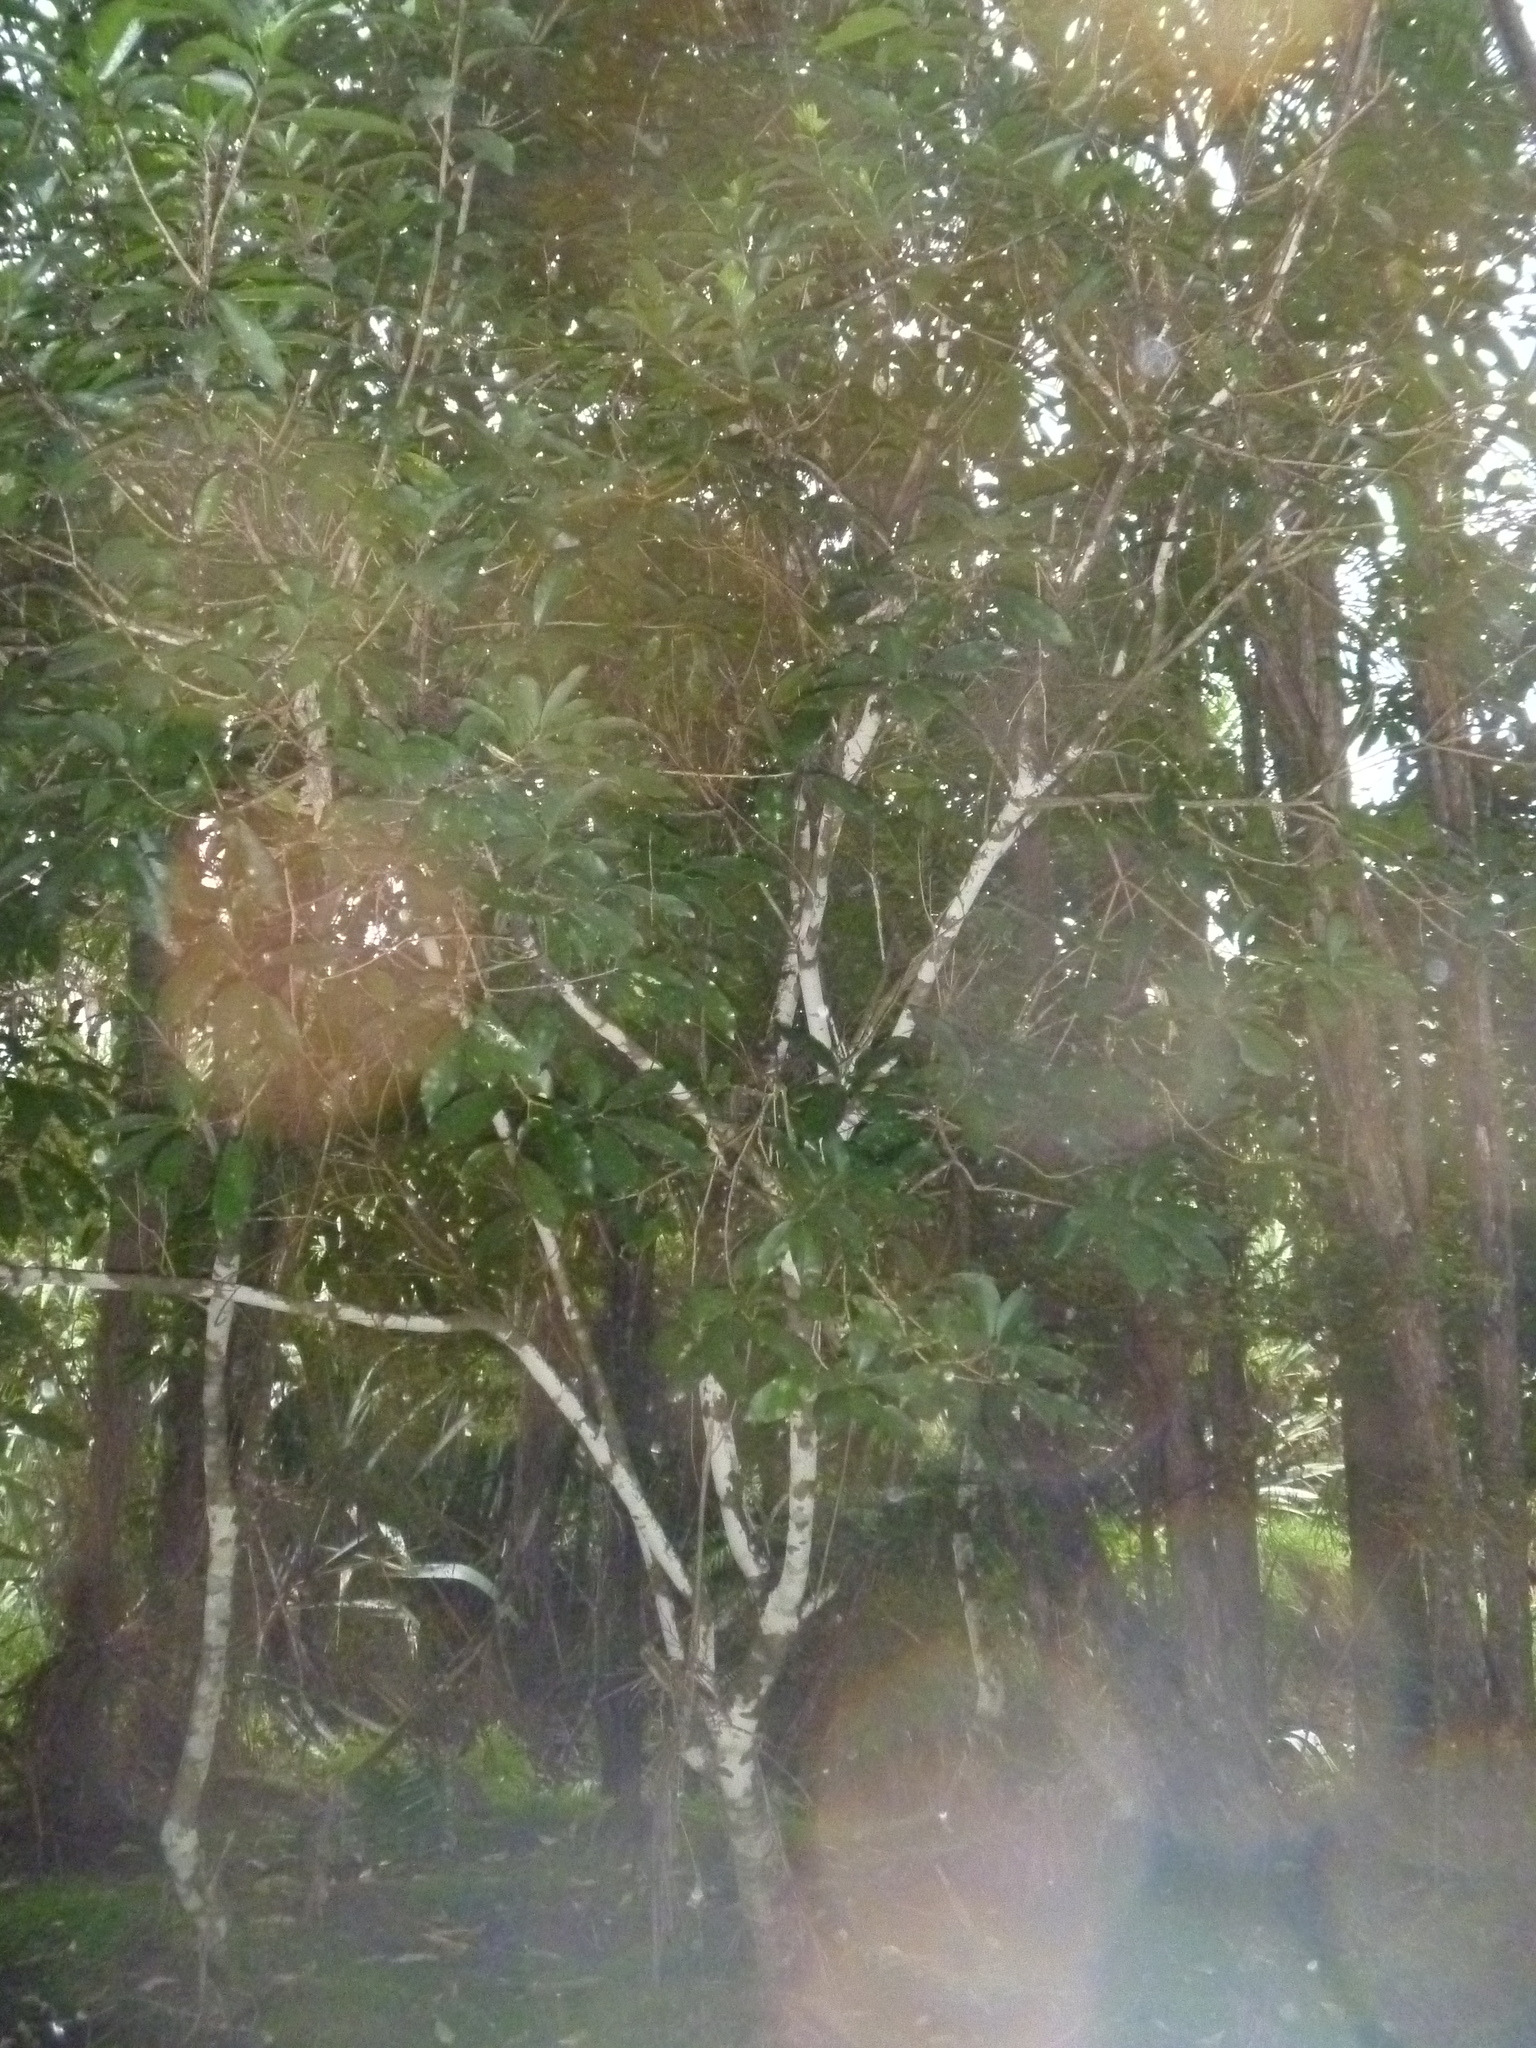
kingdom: Plantae
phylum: Tracheophyta
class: Magnoliopsida
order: Malpighiales
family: Violaceae
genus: Melicytus
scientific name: Melicytus ramiflorus
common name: Mahoe
